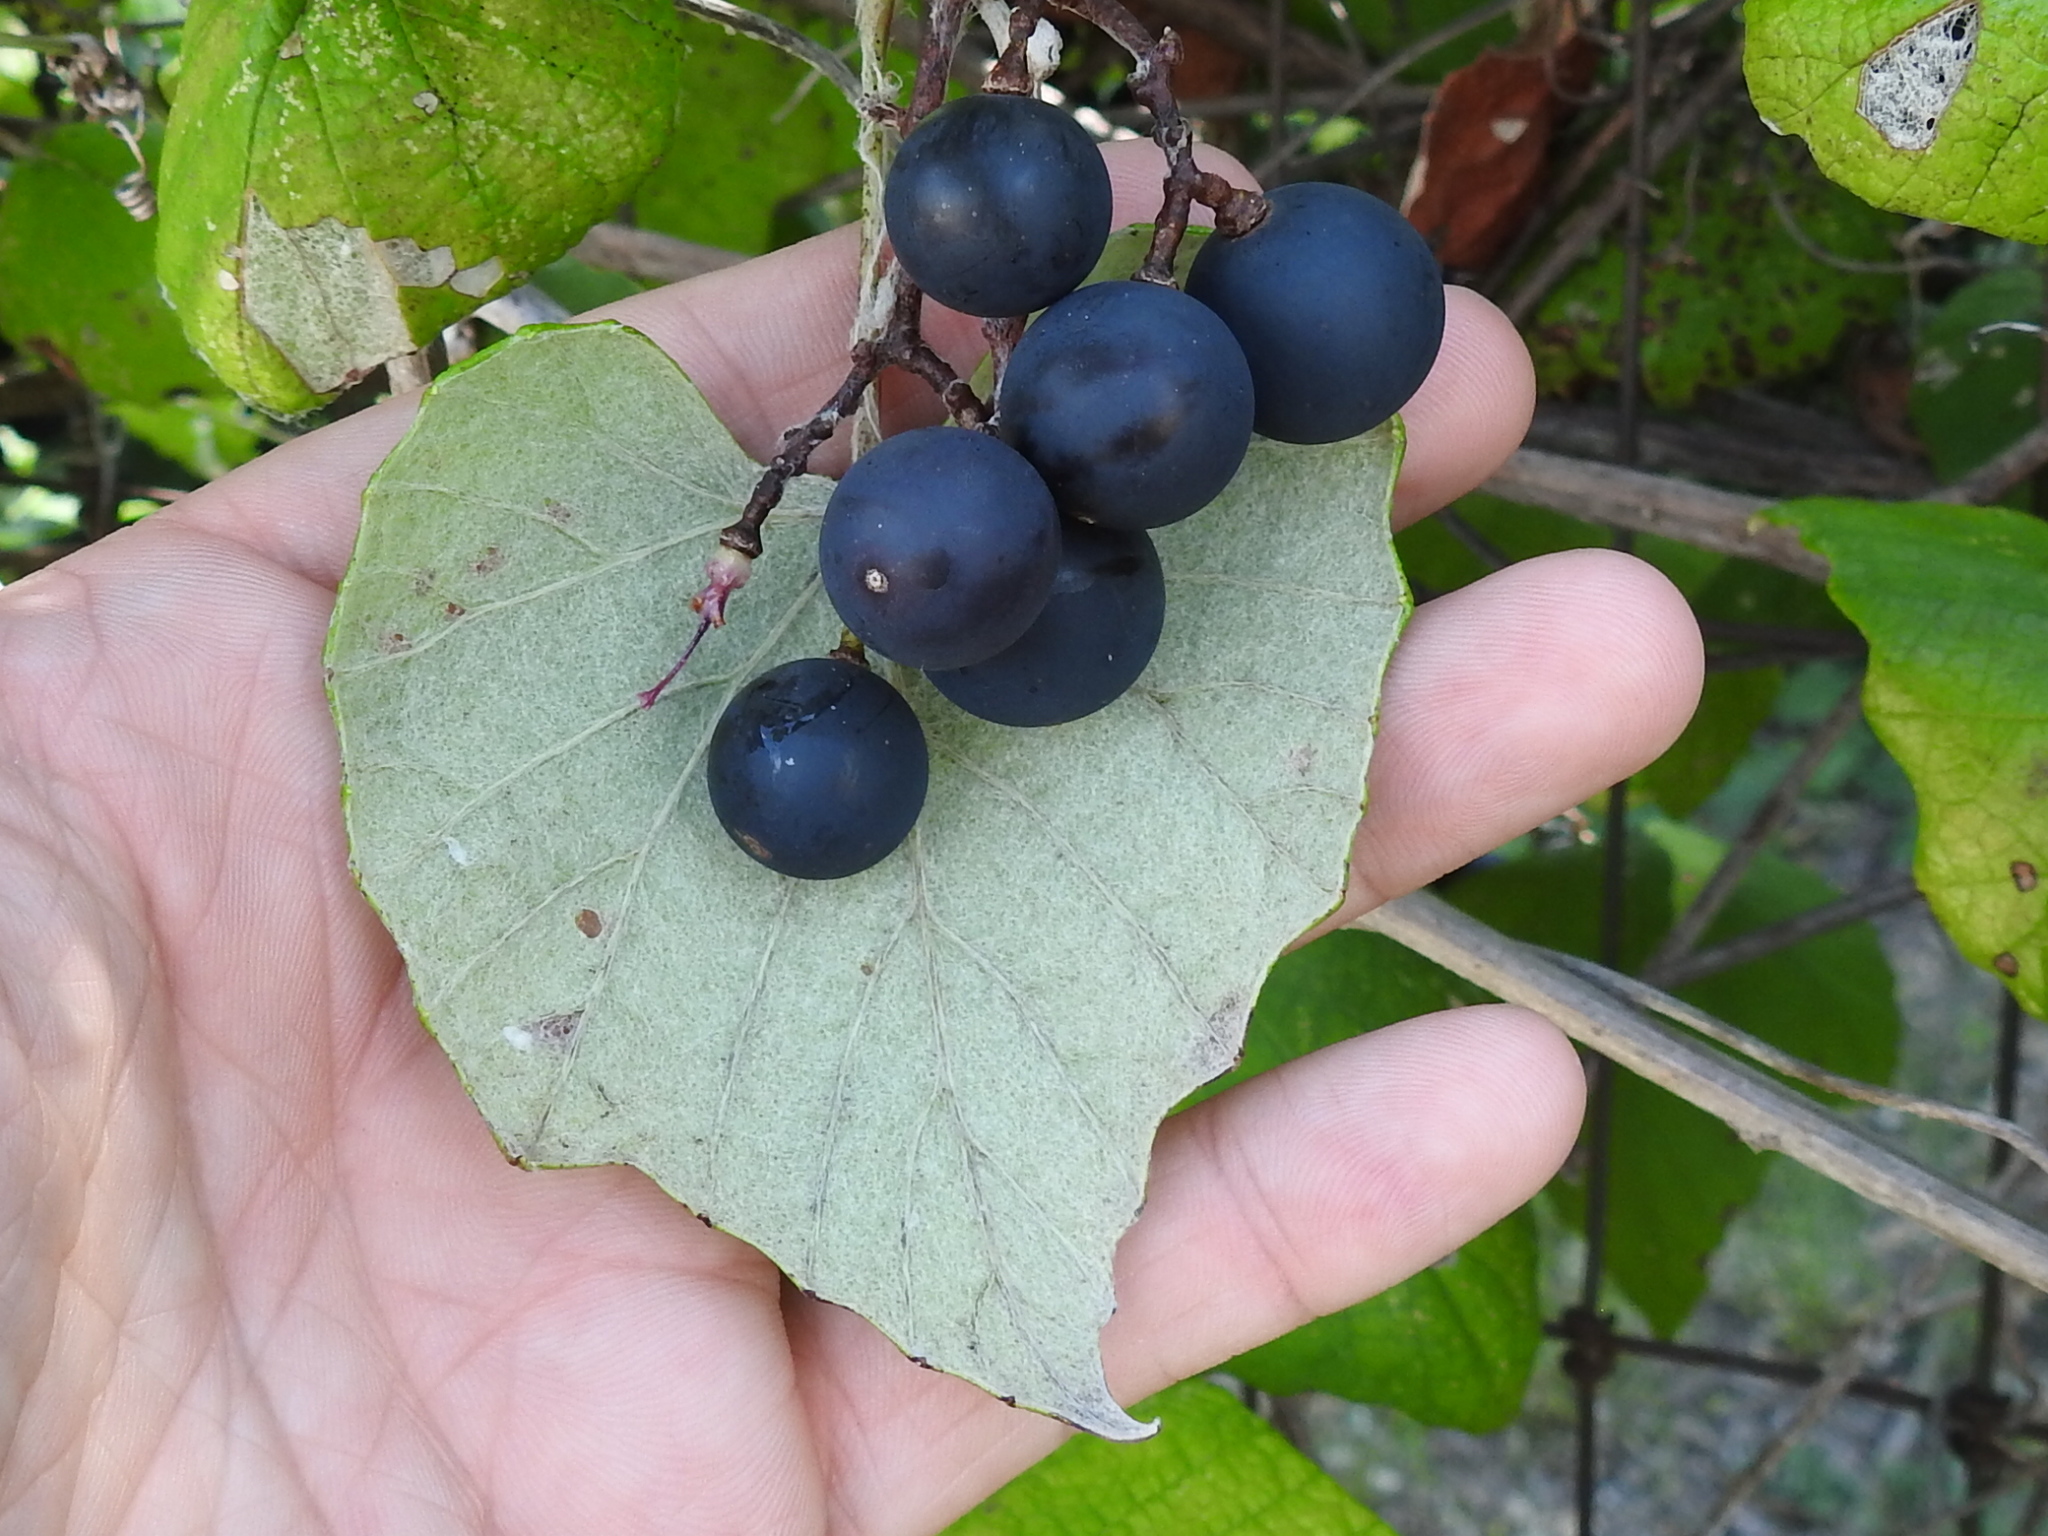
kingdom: Plantae
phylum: Tracheophyta
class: Magnoliopsida
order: Vitales
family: Vitaceae
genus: Vitis
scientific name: Vitis mustangensis
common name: Mustang grape
